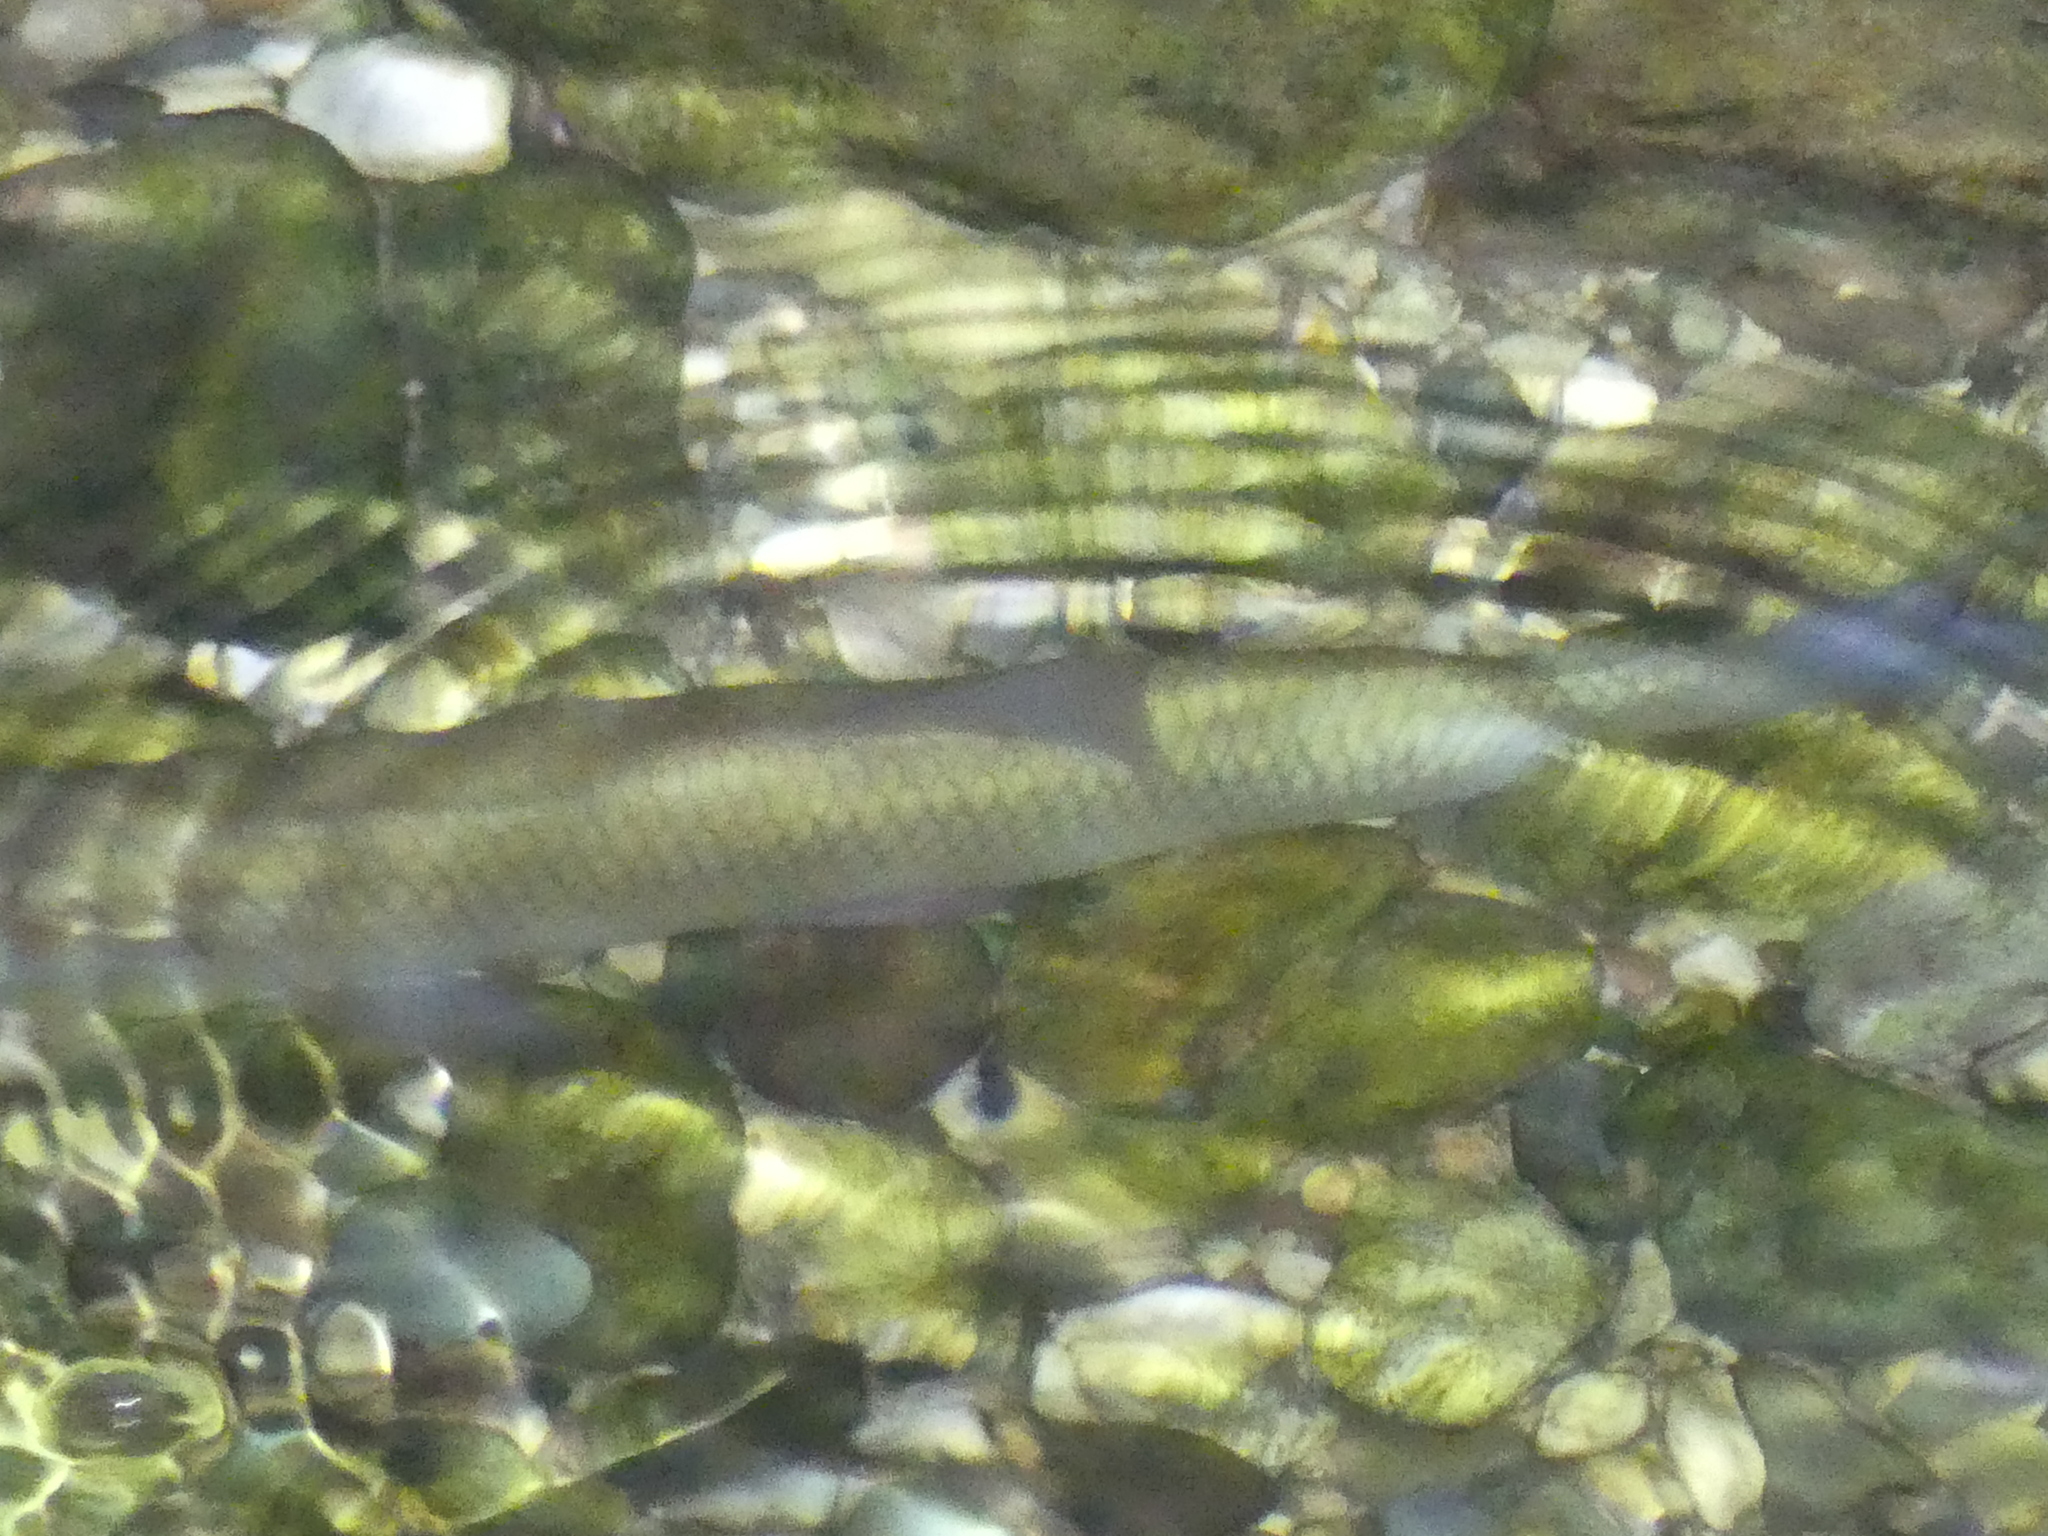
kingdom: Animalia
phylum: Chordata
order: Cypriniformes
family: Cyprinidae
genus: Squalius
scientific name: Squalius cephalus
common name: Chub
